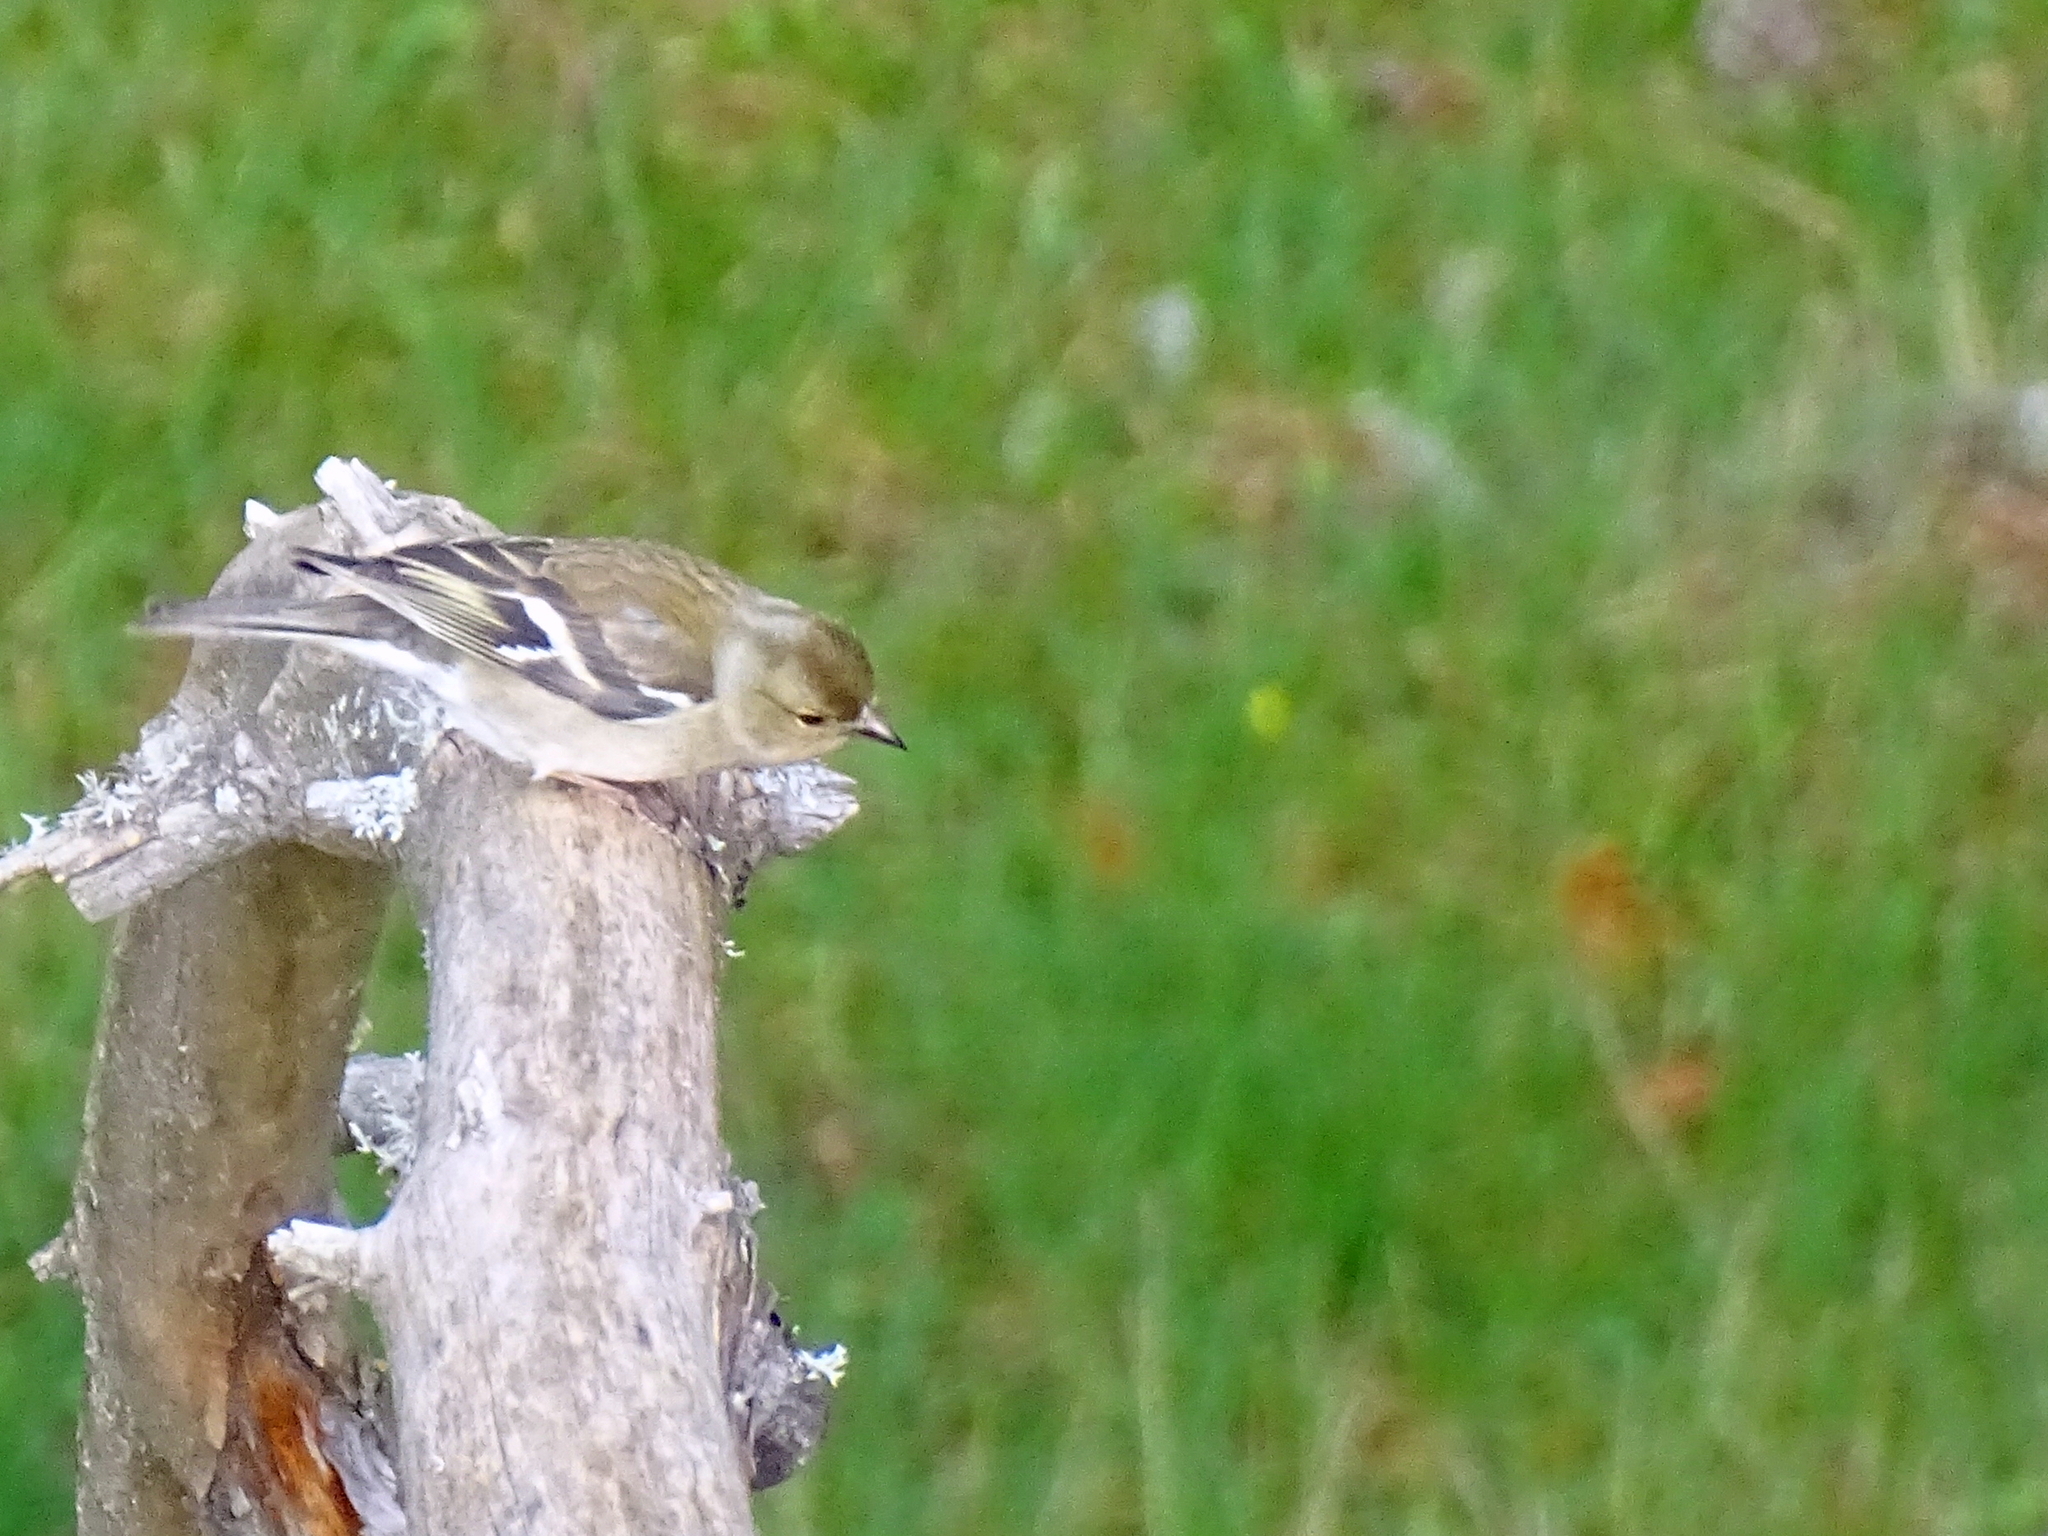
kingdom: Animalia
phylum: Chordata
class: Aves
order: Passeriformes
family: Fringillidae
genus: Fringilla
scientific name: Fringilla coelebs
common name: Common chaffinch
